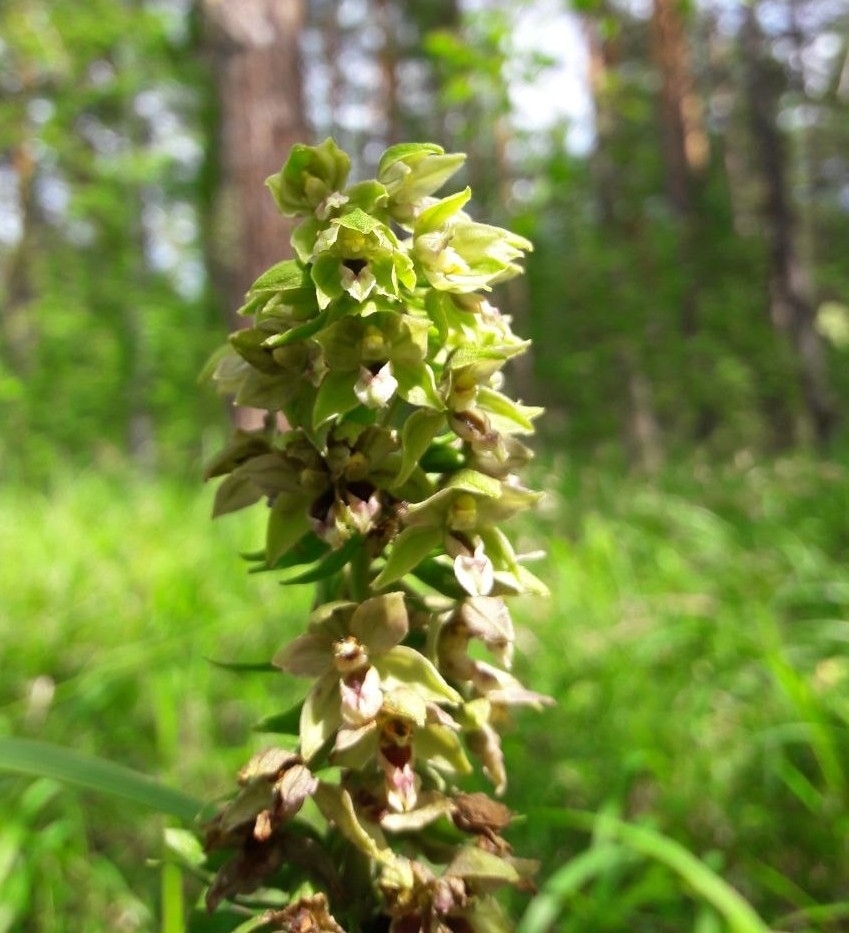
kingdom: Plantae
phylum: Tracheophyta
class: Liliopsida
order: Asparagales
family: Orchidaceae
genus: Epipactis
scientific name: Epipactis helleborine
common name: Broad-leaved helleborine
